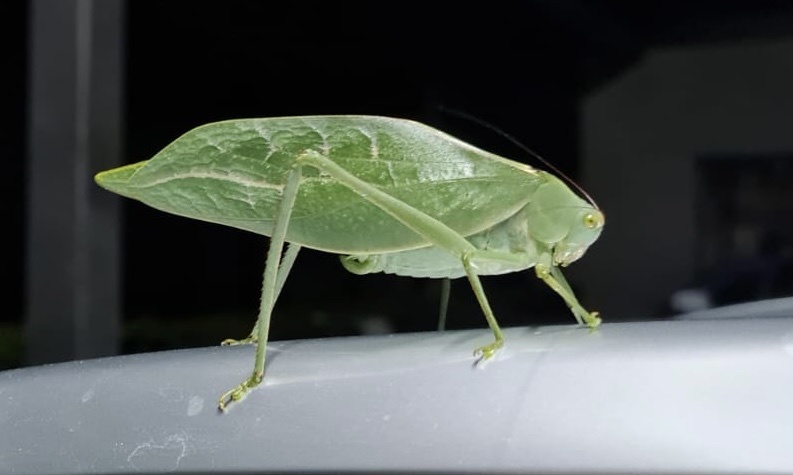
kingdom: Animalia
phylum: Arthropoda
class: Insecta
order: Orthoptera
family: Tettigoniidae
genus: Stilpnochlora
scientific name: Stilpnochlora azteca
